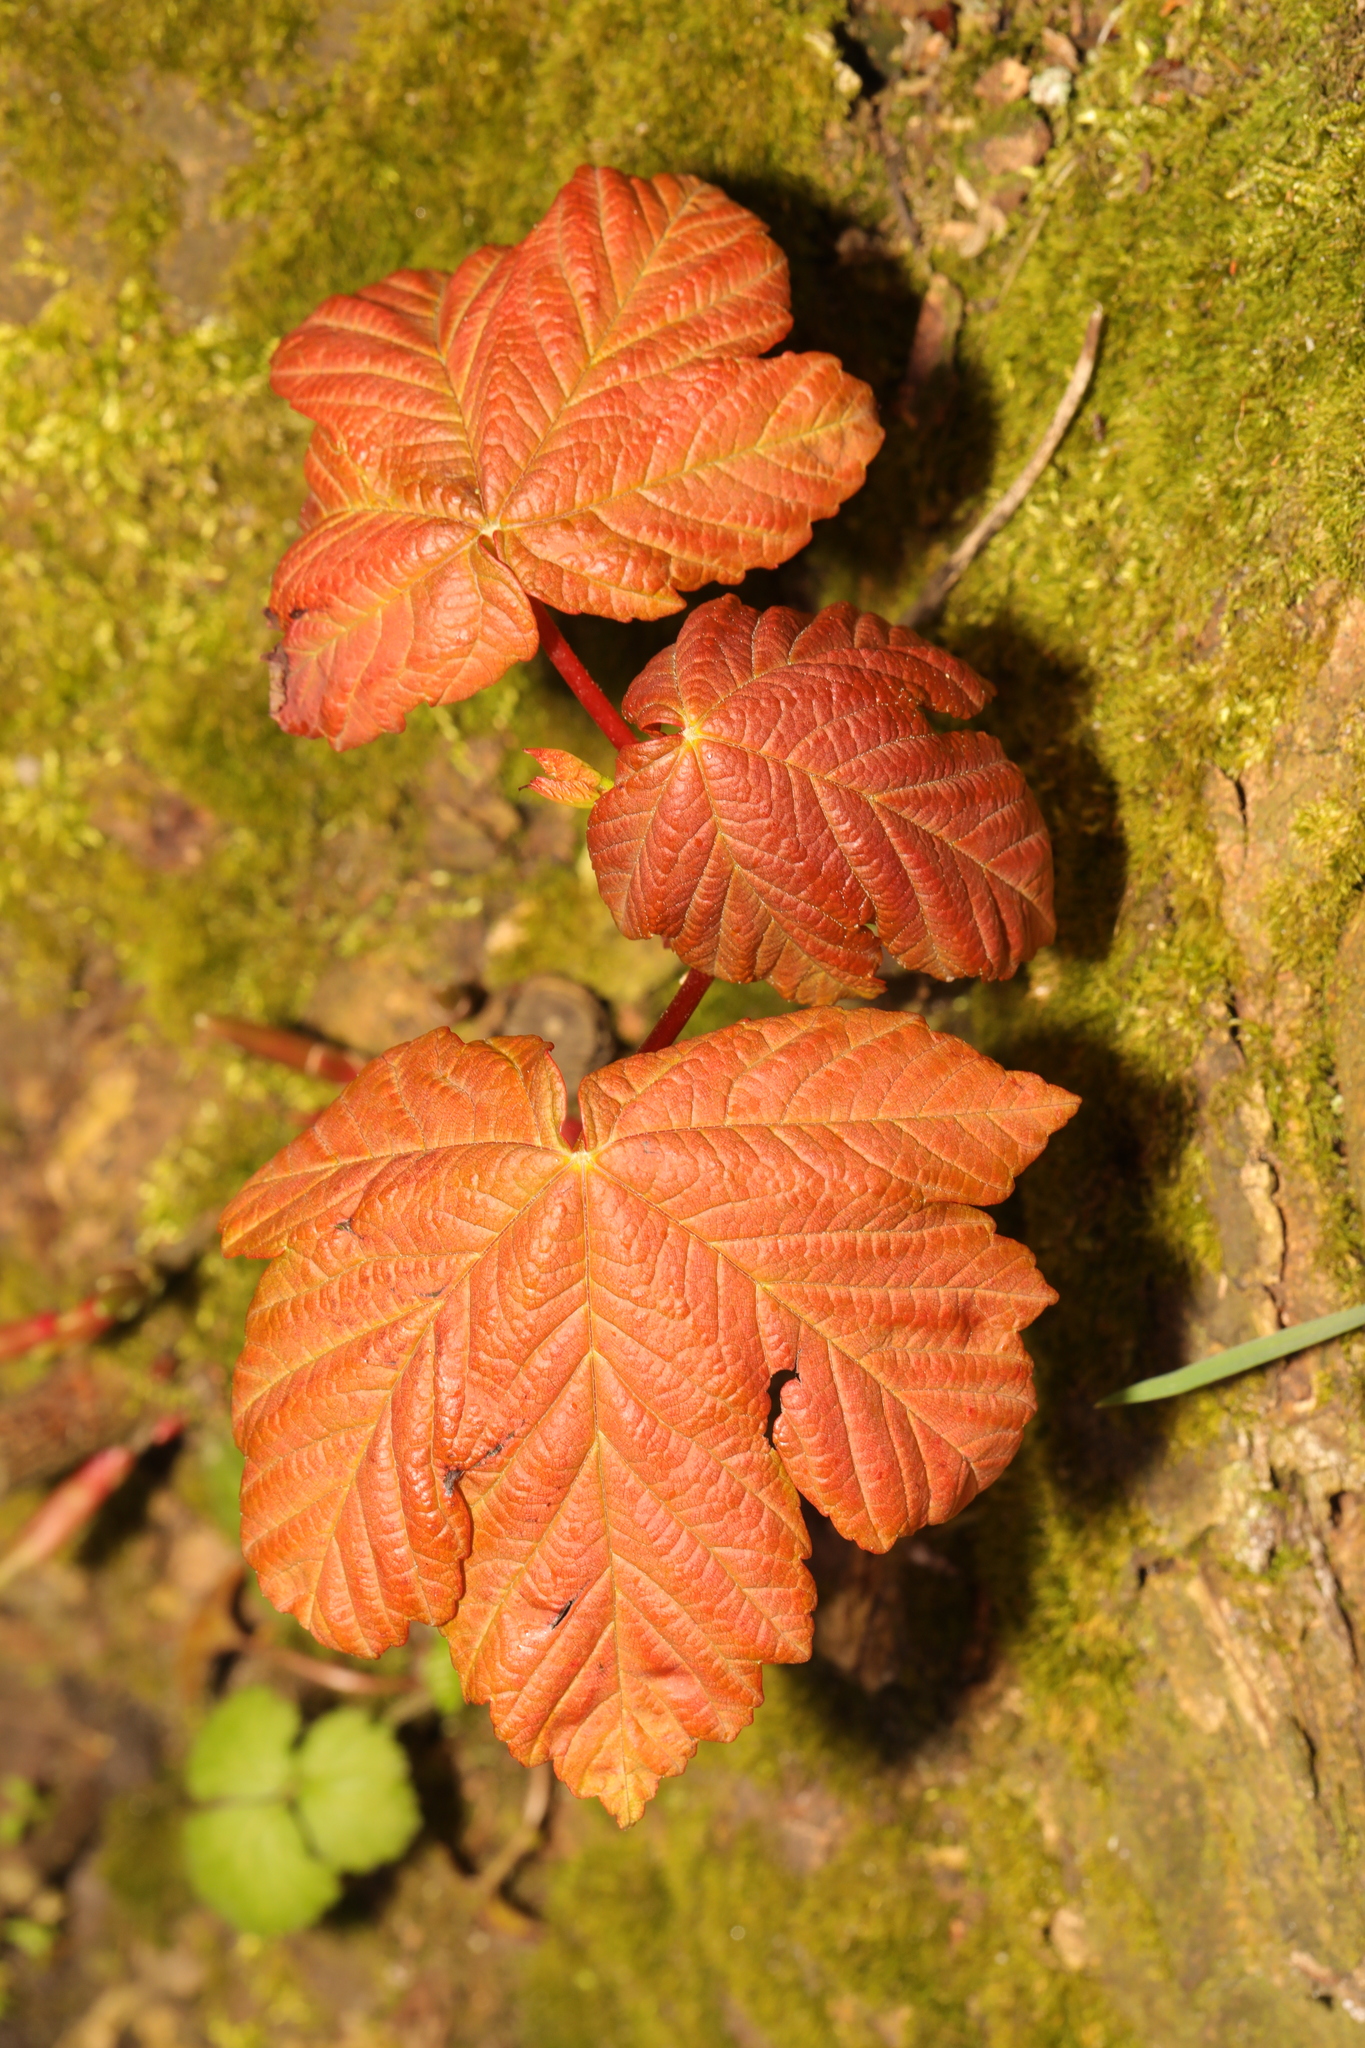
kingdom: Plantae
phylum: Tracheophyta
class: Magnoliopsida
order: Sapindales
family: Sapindaceae
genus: Acer
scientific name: Acer pseudoplatanus
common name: Sycamore
